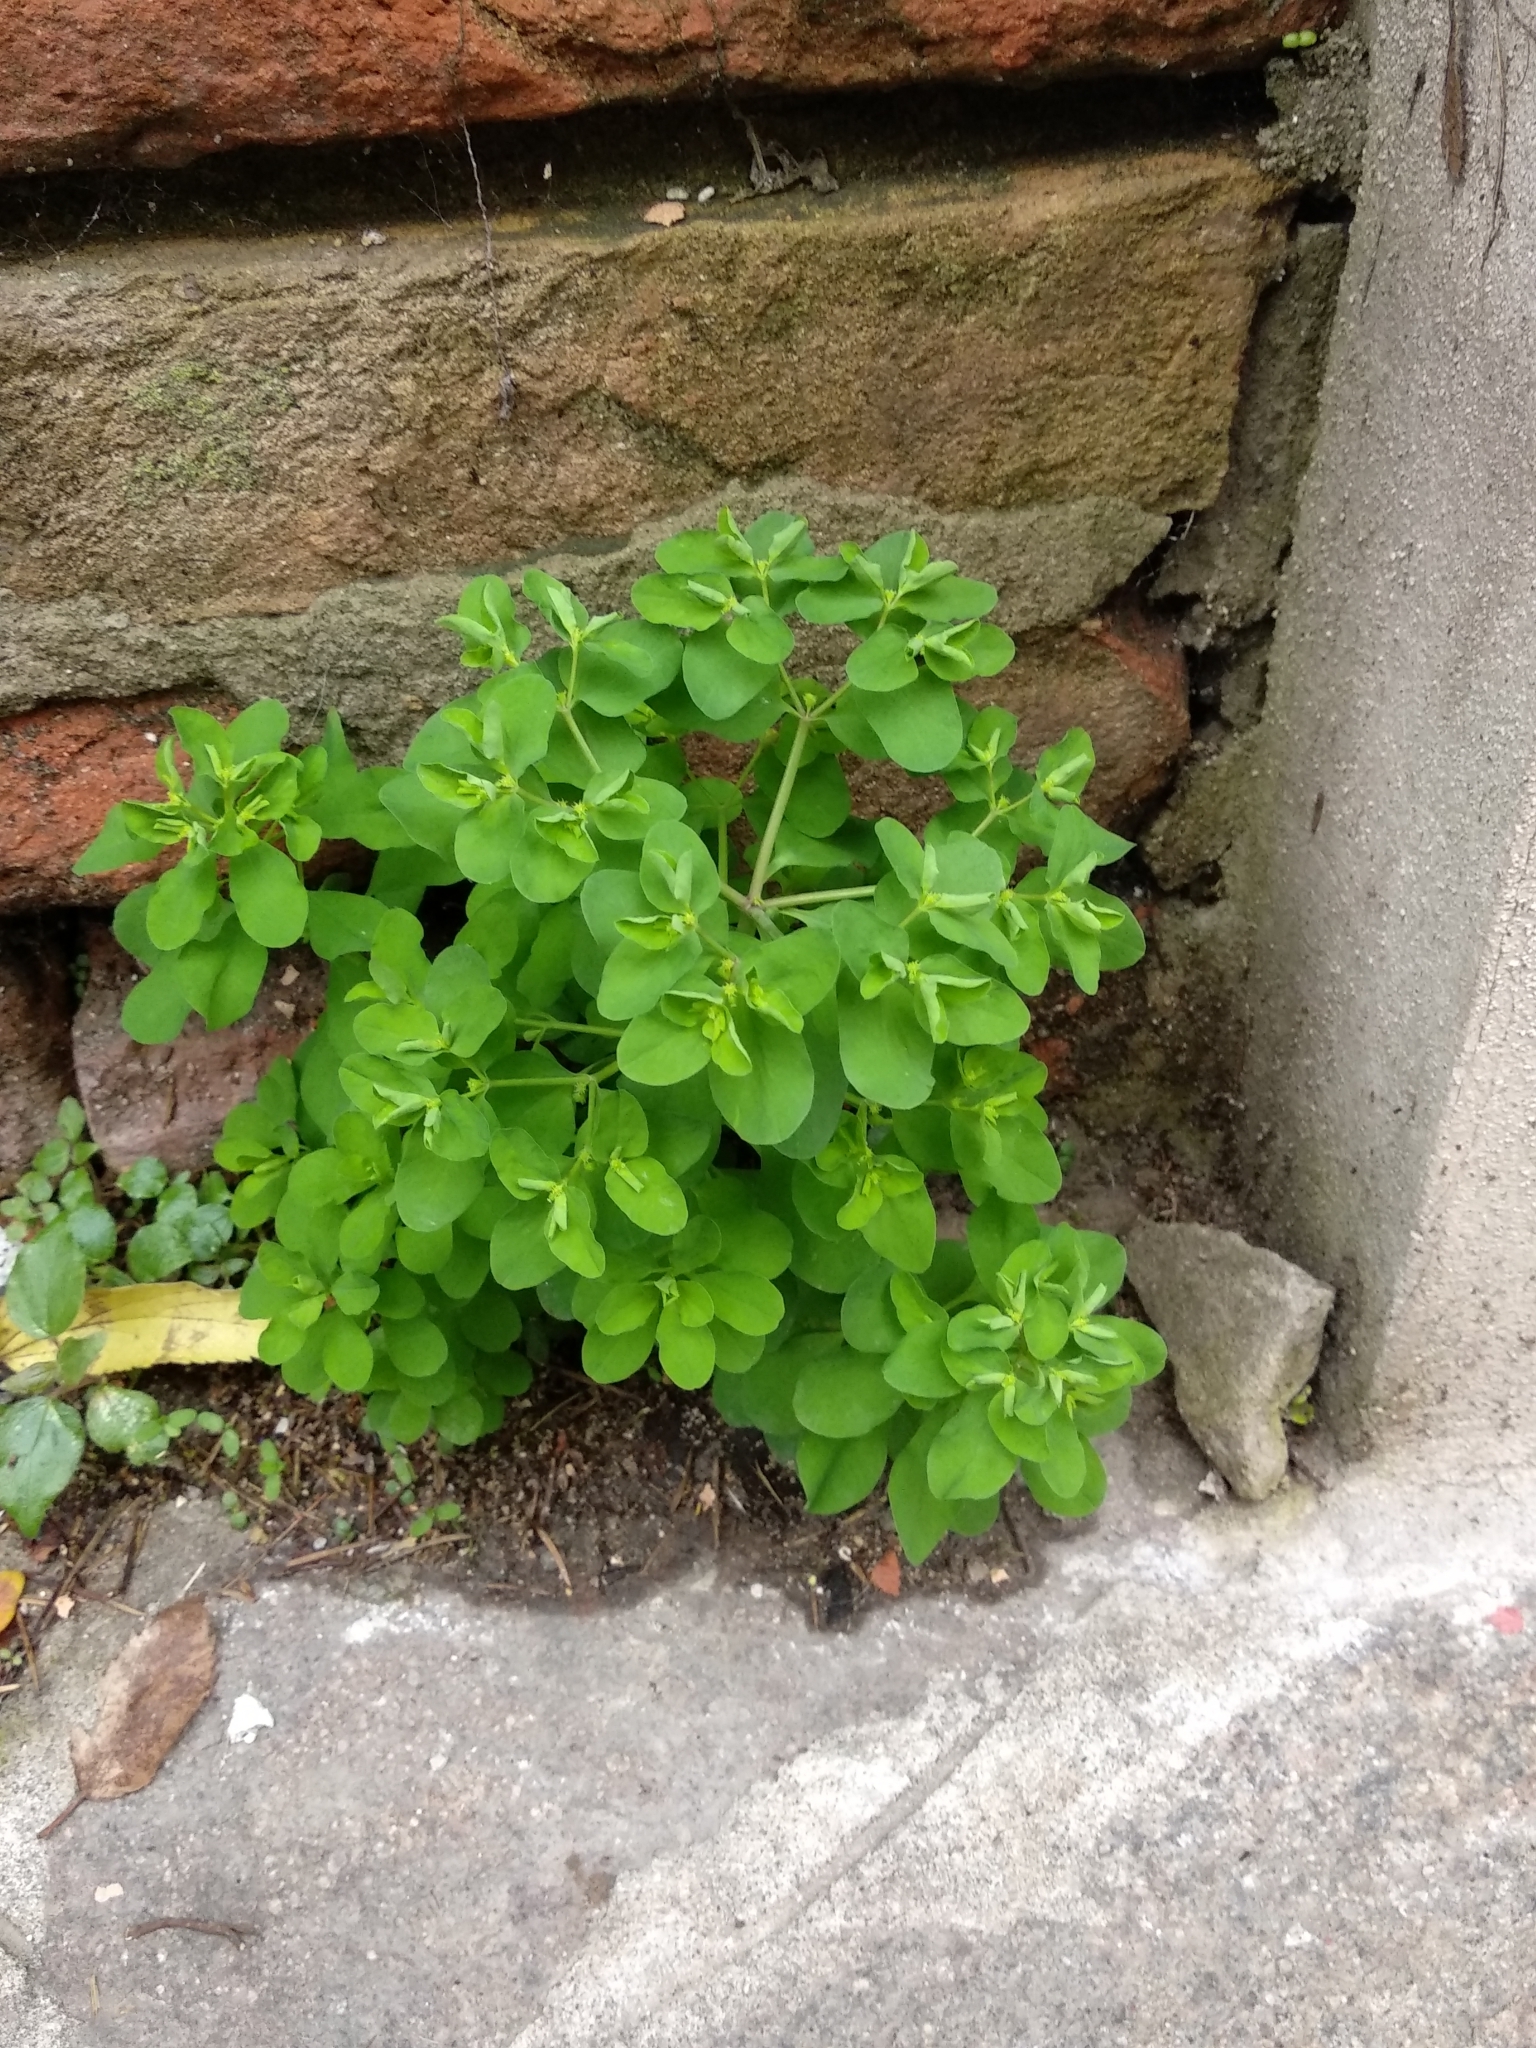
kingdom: Plantae
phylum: Tracheophyta
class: Magnoliopsida
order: Malpighiales
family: Euphorbiaceae
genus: Euphorbia
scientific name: Euphorbia peplus
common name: Petty spurge
